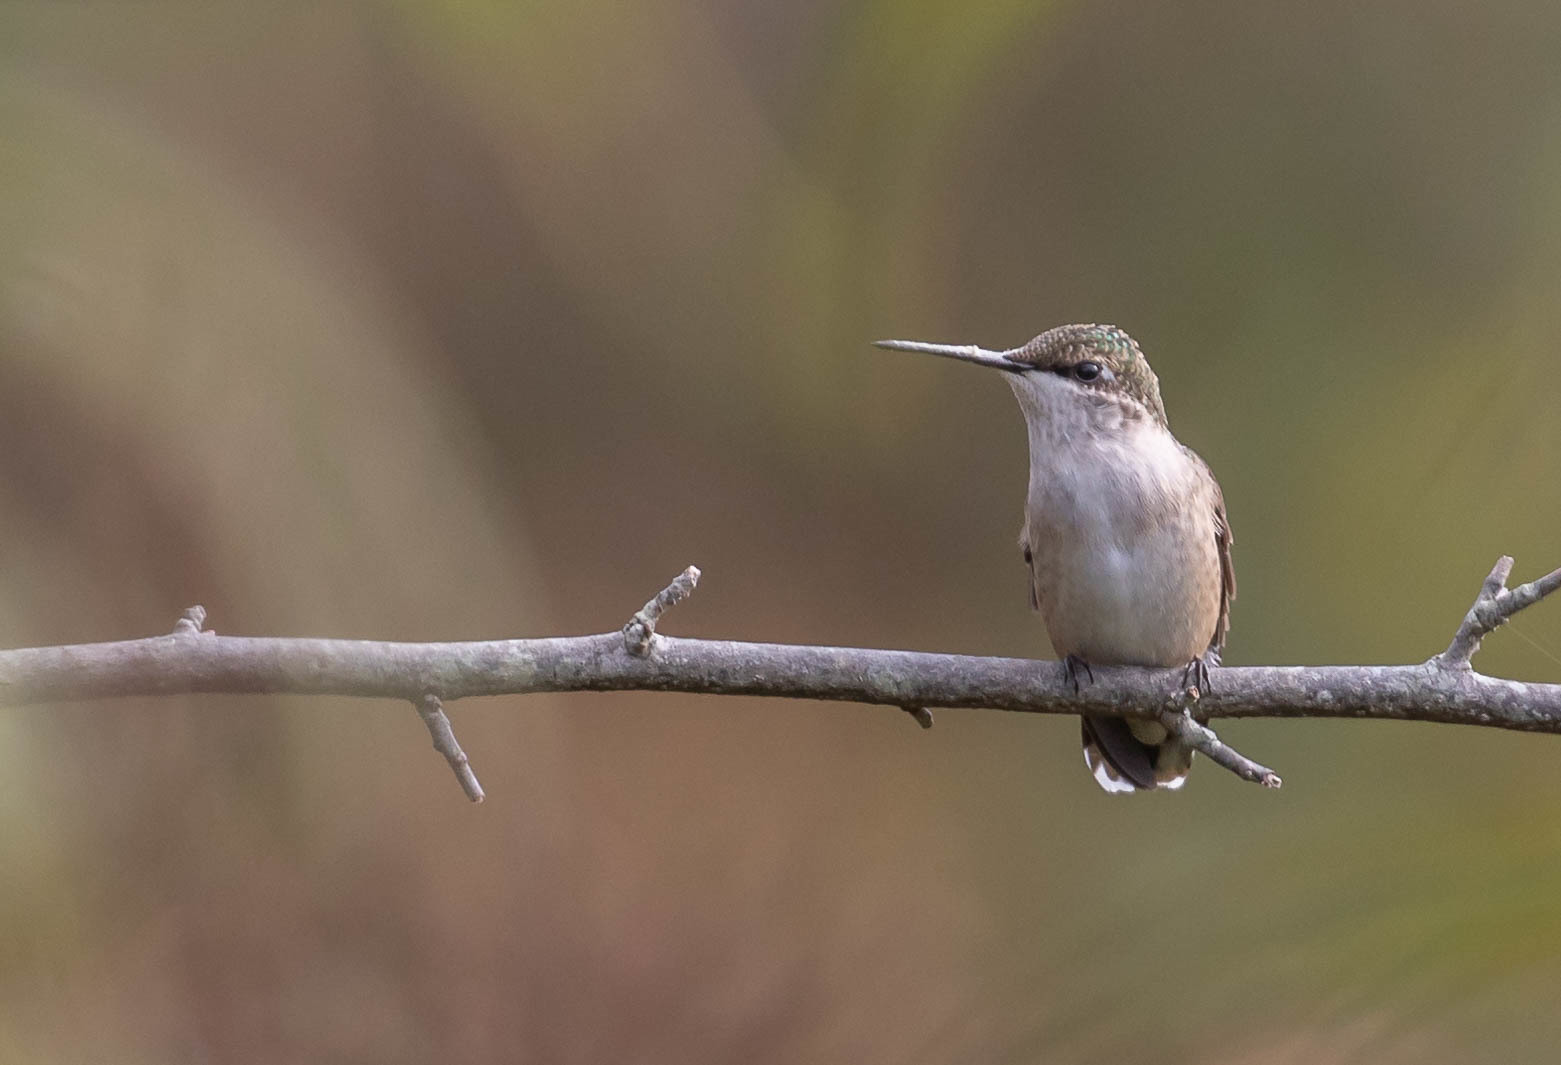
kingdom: Animalia
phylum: Chordata
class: Aves
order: Apodiformes
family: Trochilidae
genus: Archilochus
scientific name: Archilochus colubris
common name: Ruby-throated hummingbird
